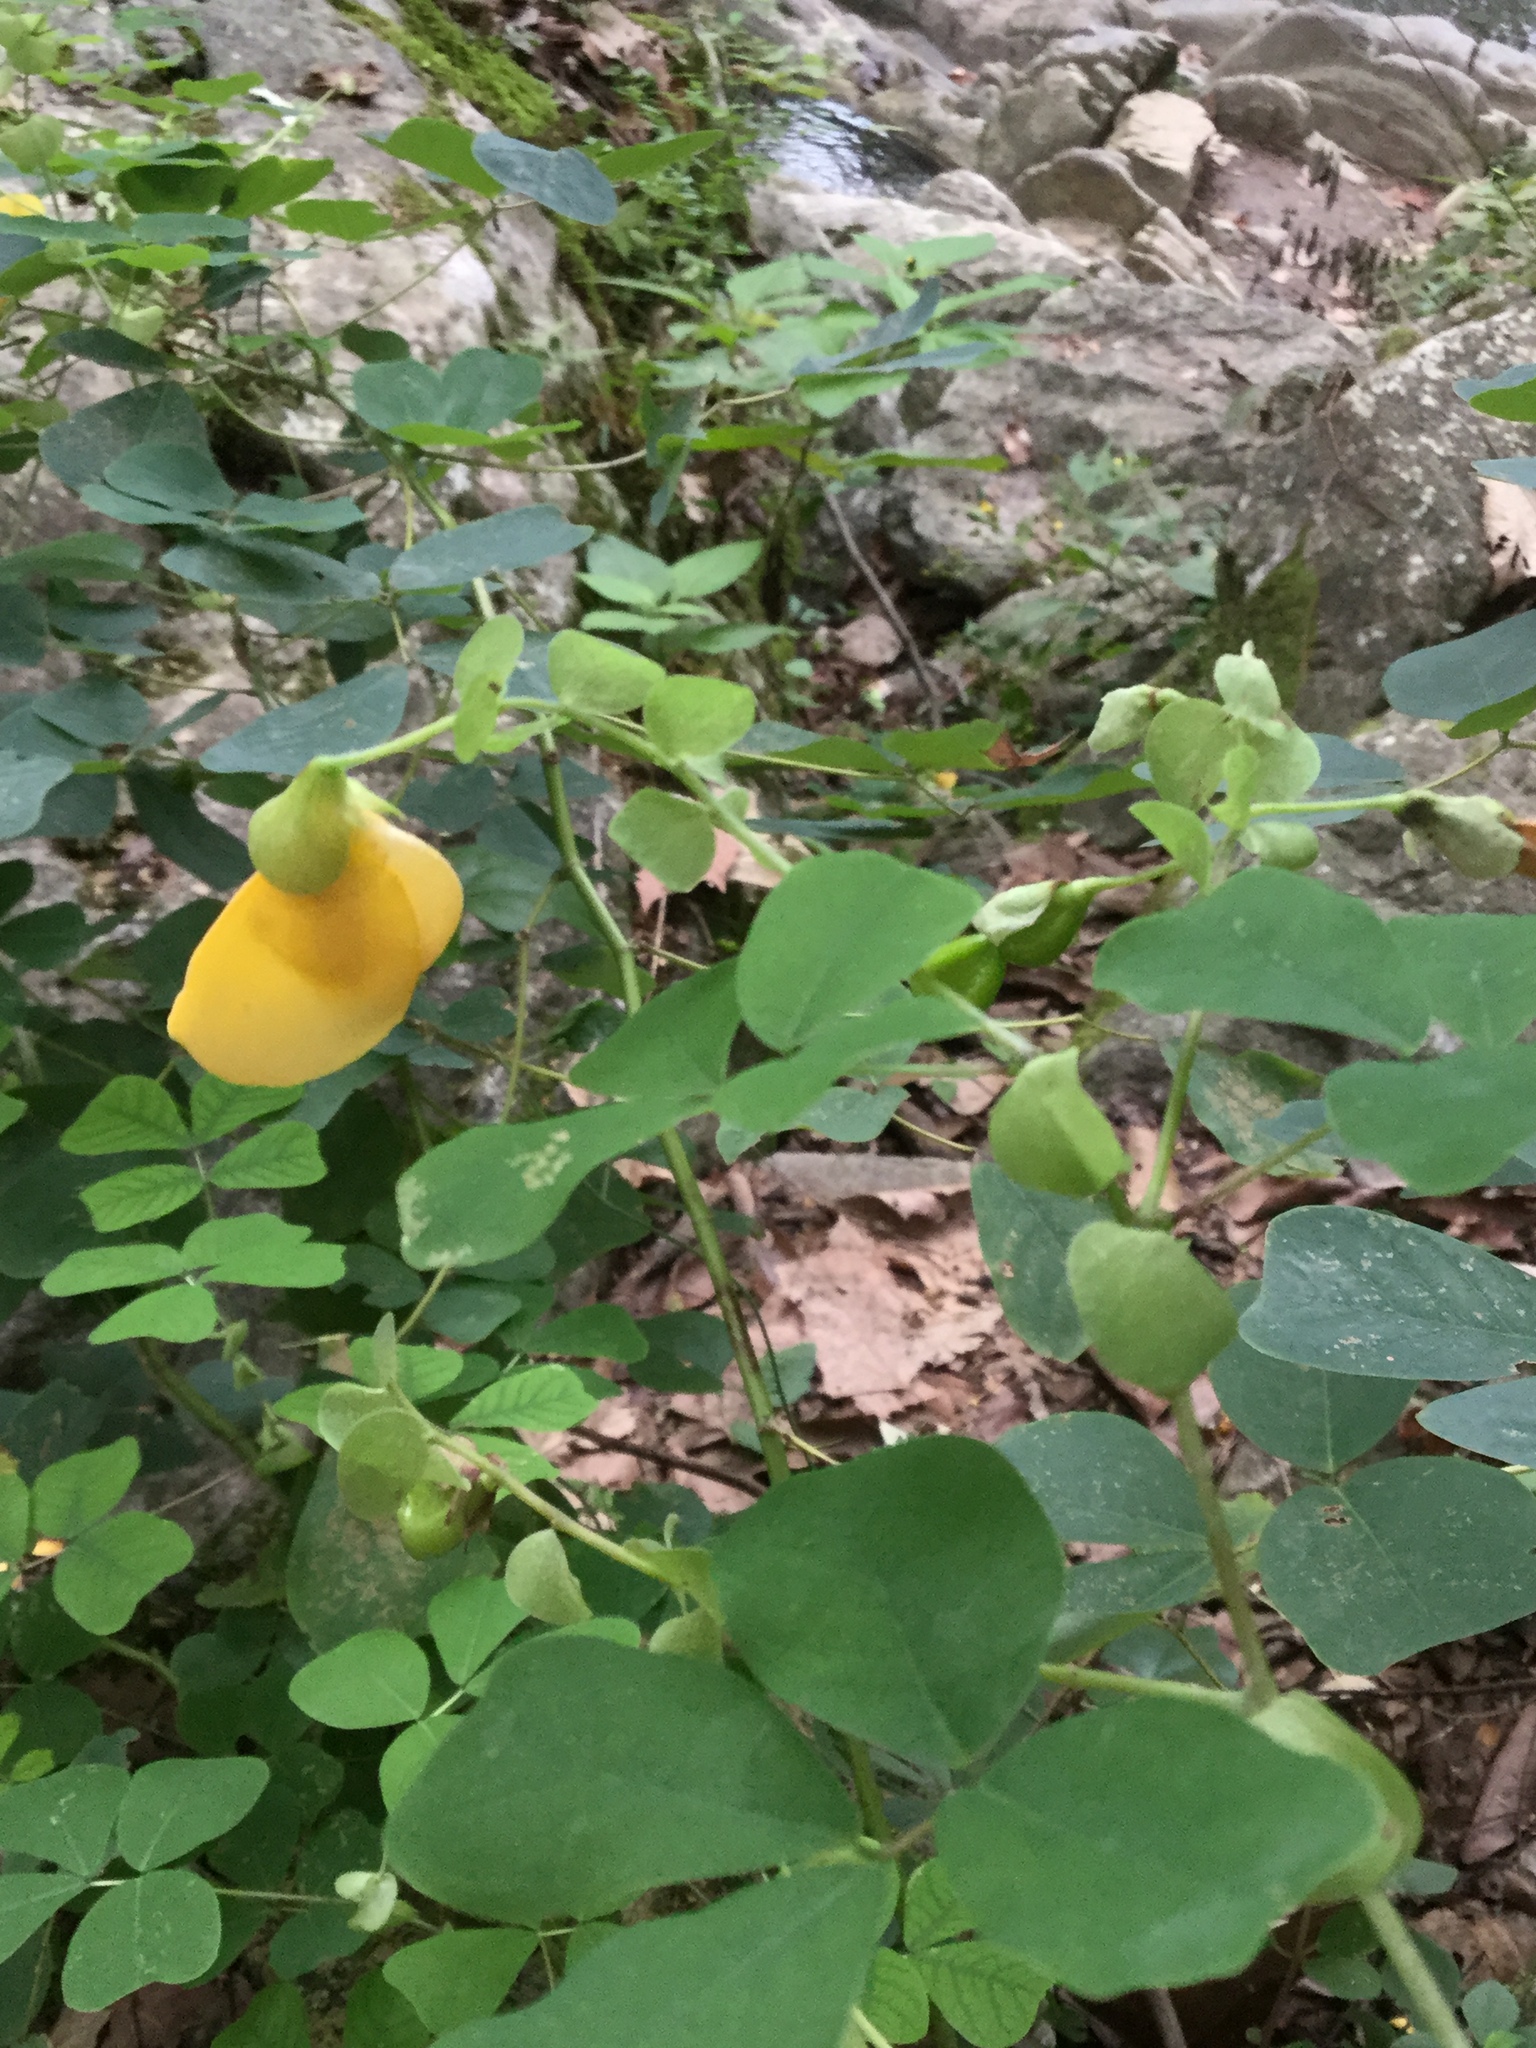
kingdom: Plantae
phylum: Tracheophyta
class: Magnoliopsida
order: Fabales
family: Fabaceae
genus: Amicia
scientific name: Amicia zygomeris
